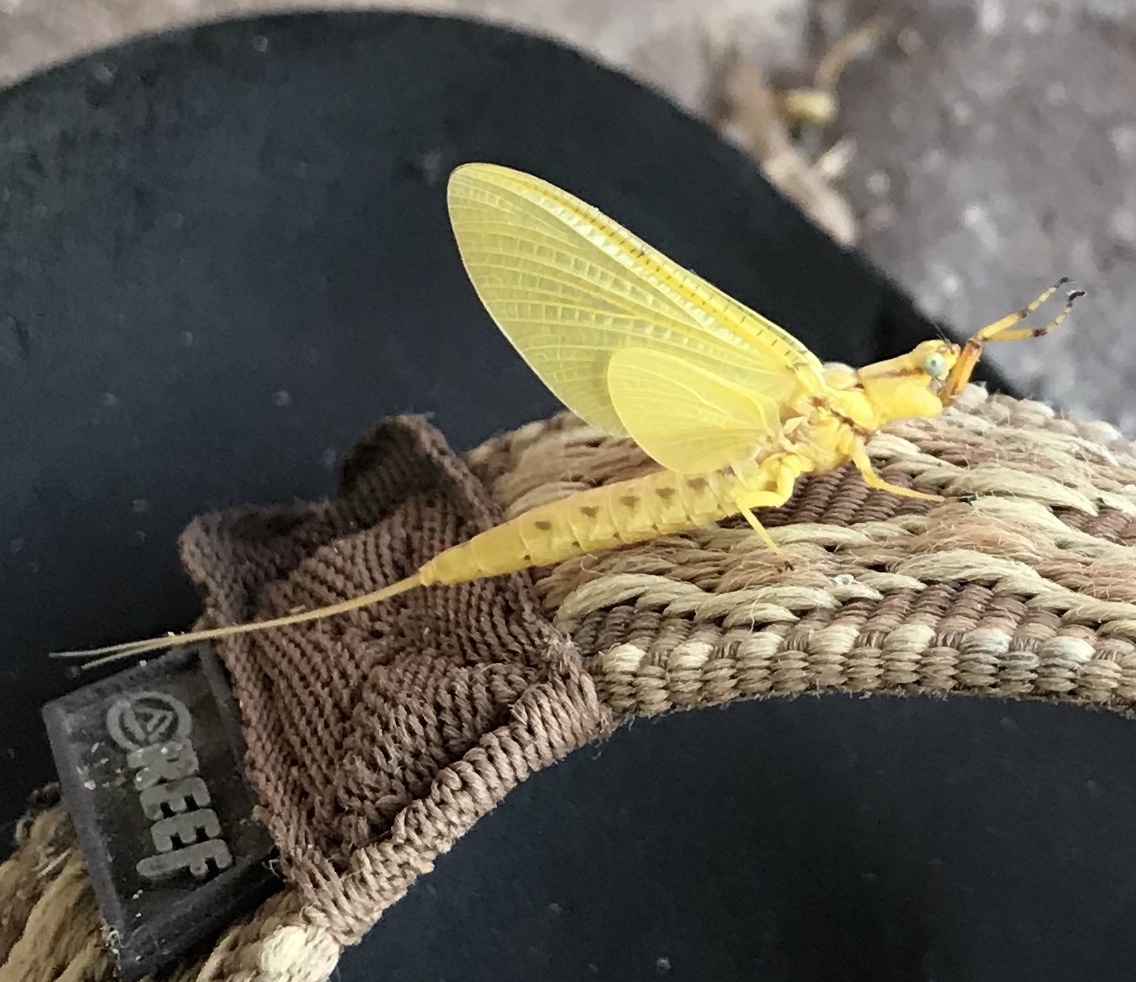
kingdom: Animalia
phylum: Arthropoda
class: Insecta
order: Ephemeroptera
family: Ephemeridae
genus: Hexagenia
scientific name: Hexagenia limbata
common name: Giant mayfly
